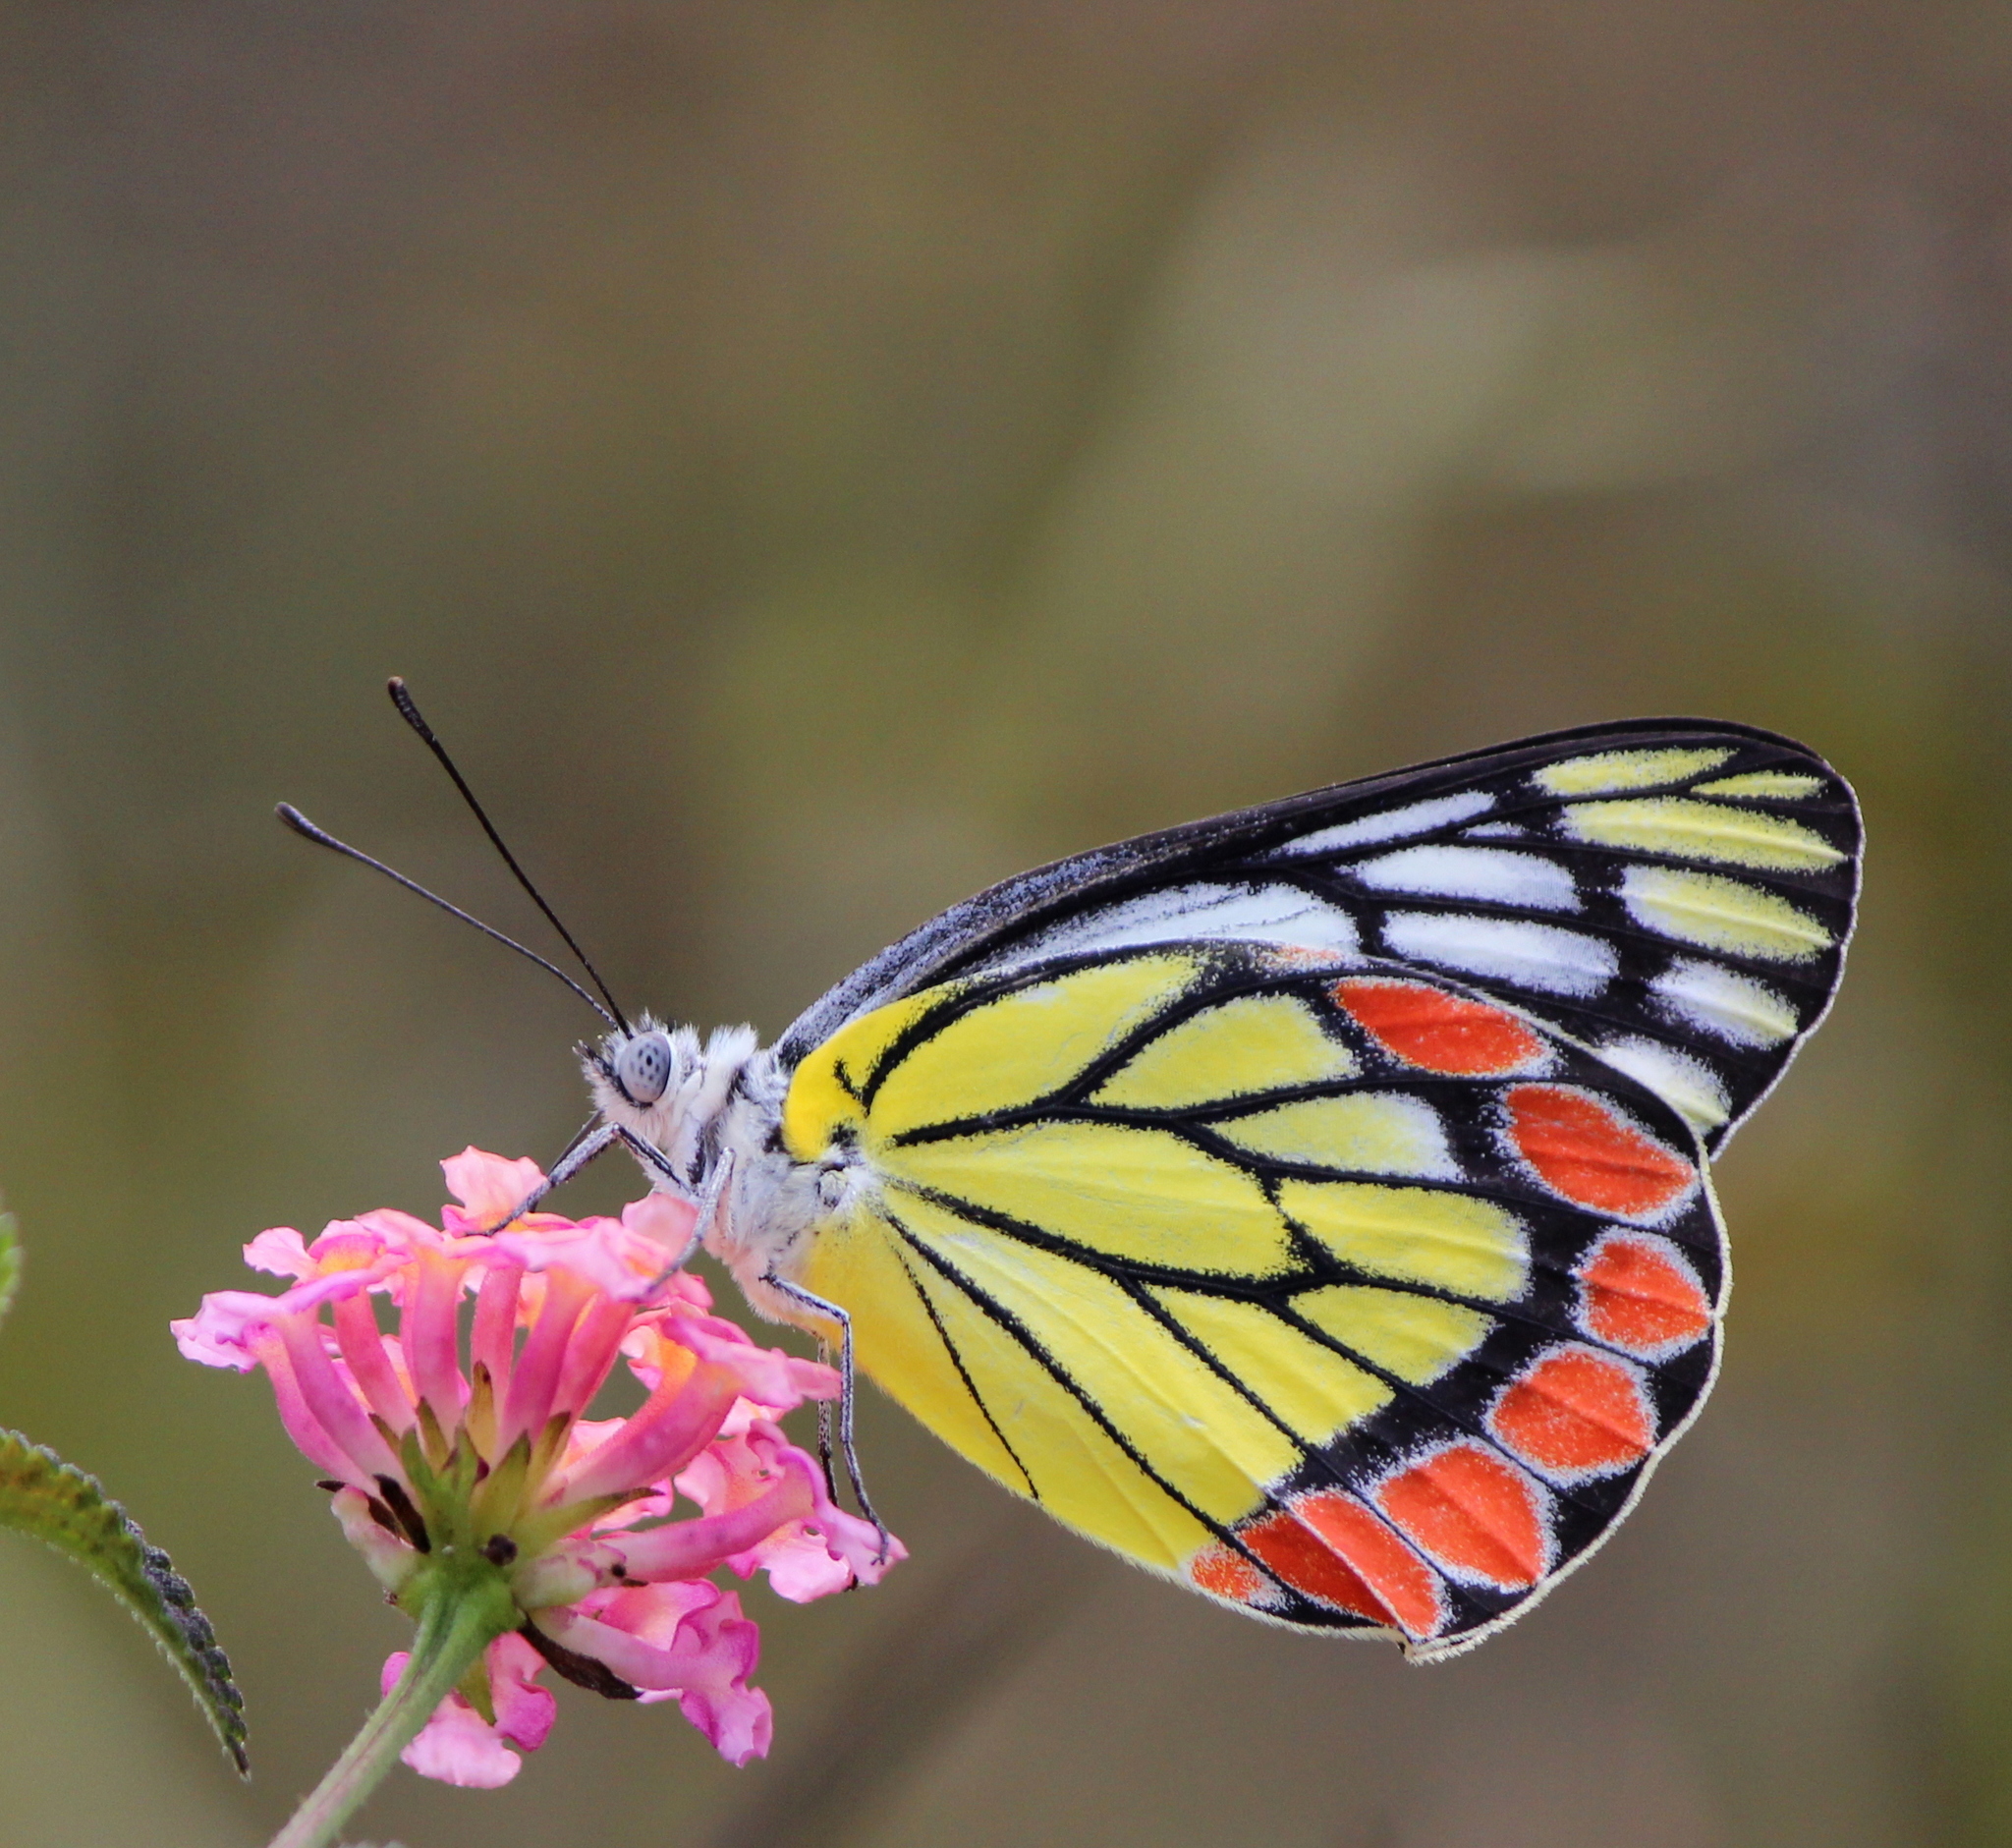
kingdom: Animalia
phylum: Arthropoda
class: Insecta
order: Lepidoptera
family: Pieridae
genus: Delias
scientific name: Delias eucharis
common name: Common jezebel
